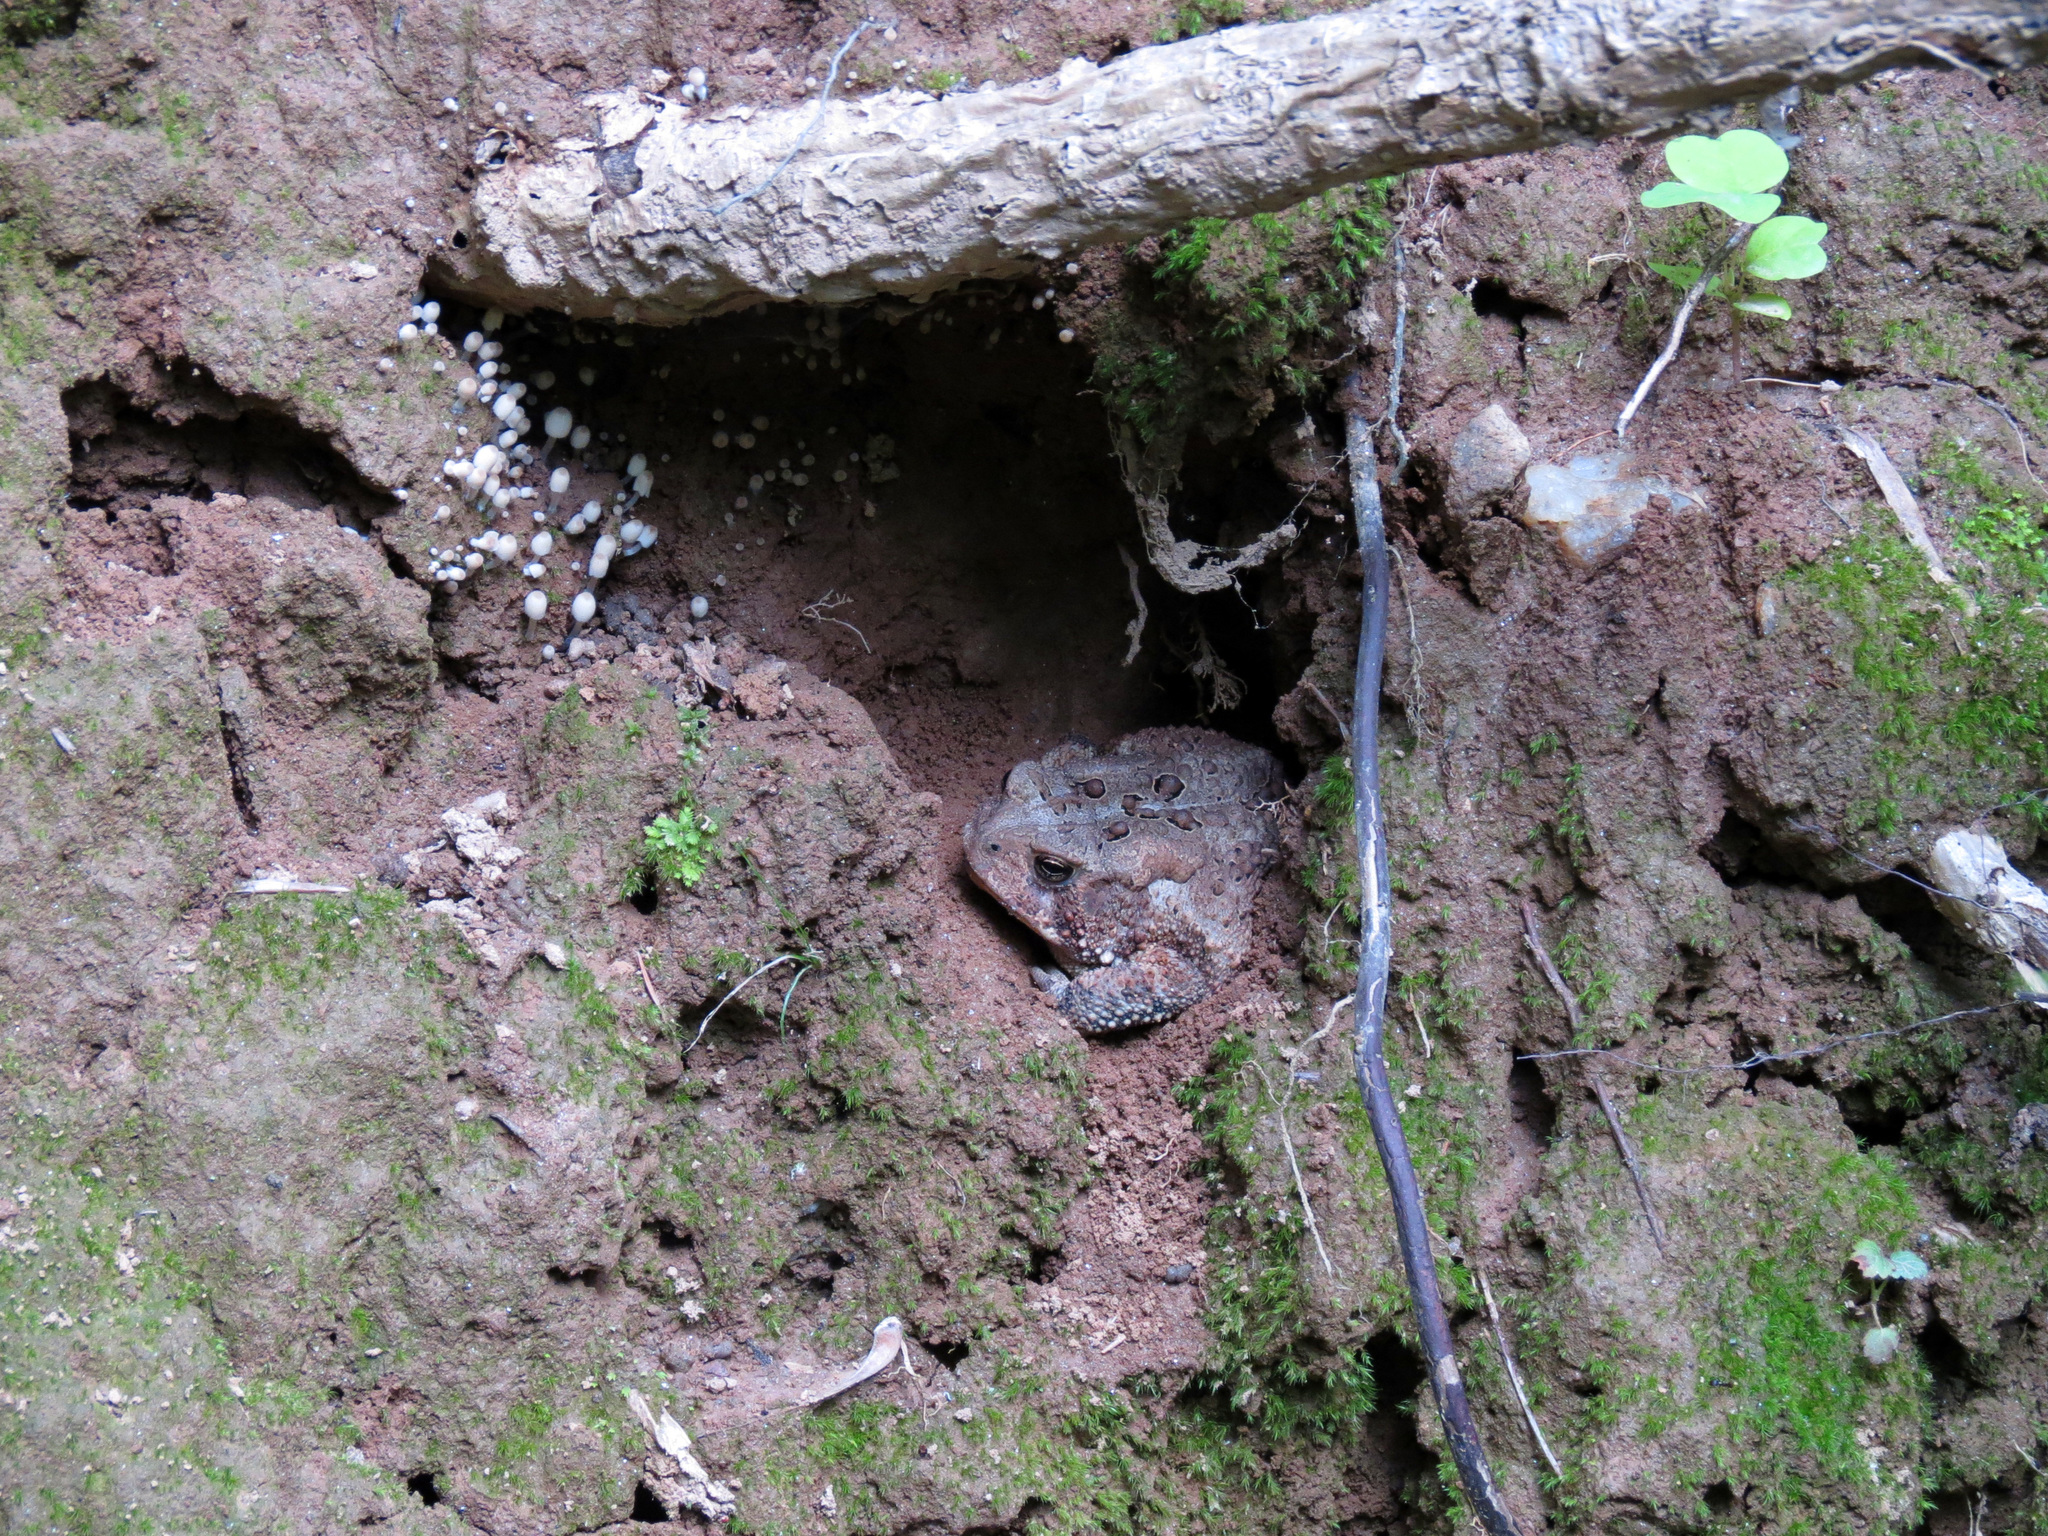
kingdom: Animalia
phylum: Chordata
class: Amphibia
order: Anura
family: Bufonidae
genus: Anaxyrus
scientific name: Anaxyrus americanus
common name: American toad
